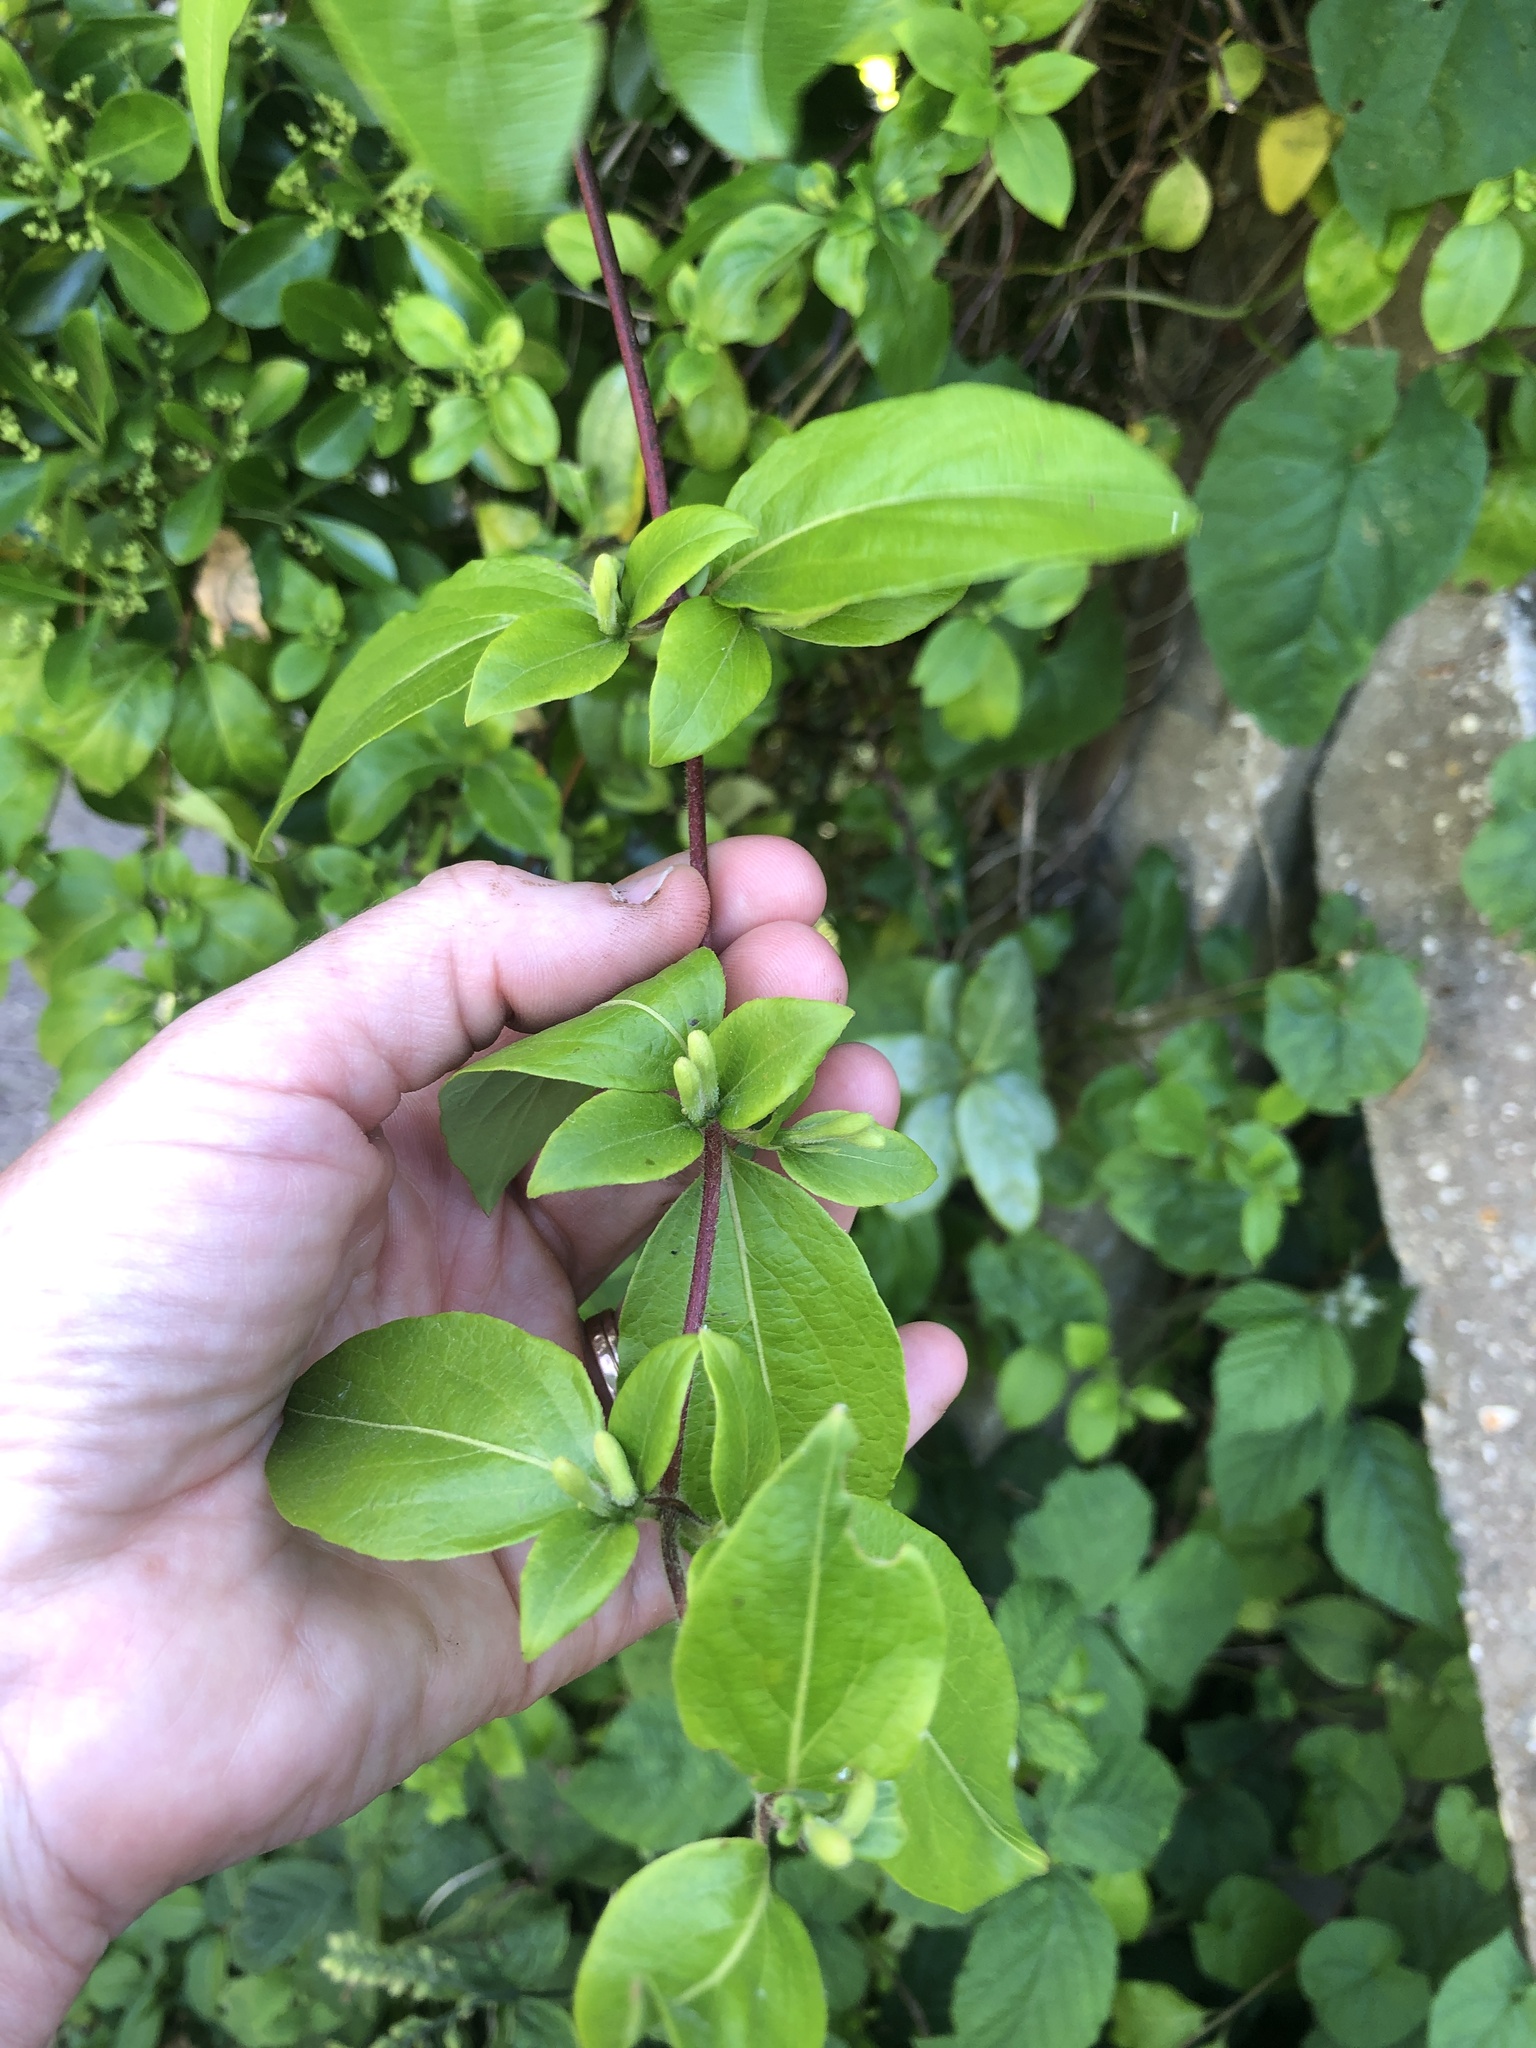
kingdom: Plantae
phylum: Tracheophyta
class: Magnoliopsida
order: Dipsacales
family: Caprifoliaceae
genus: Lonicera
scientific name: Lonicera japonica
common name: Japanese honeysuckle
